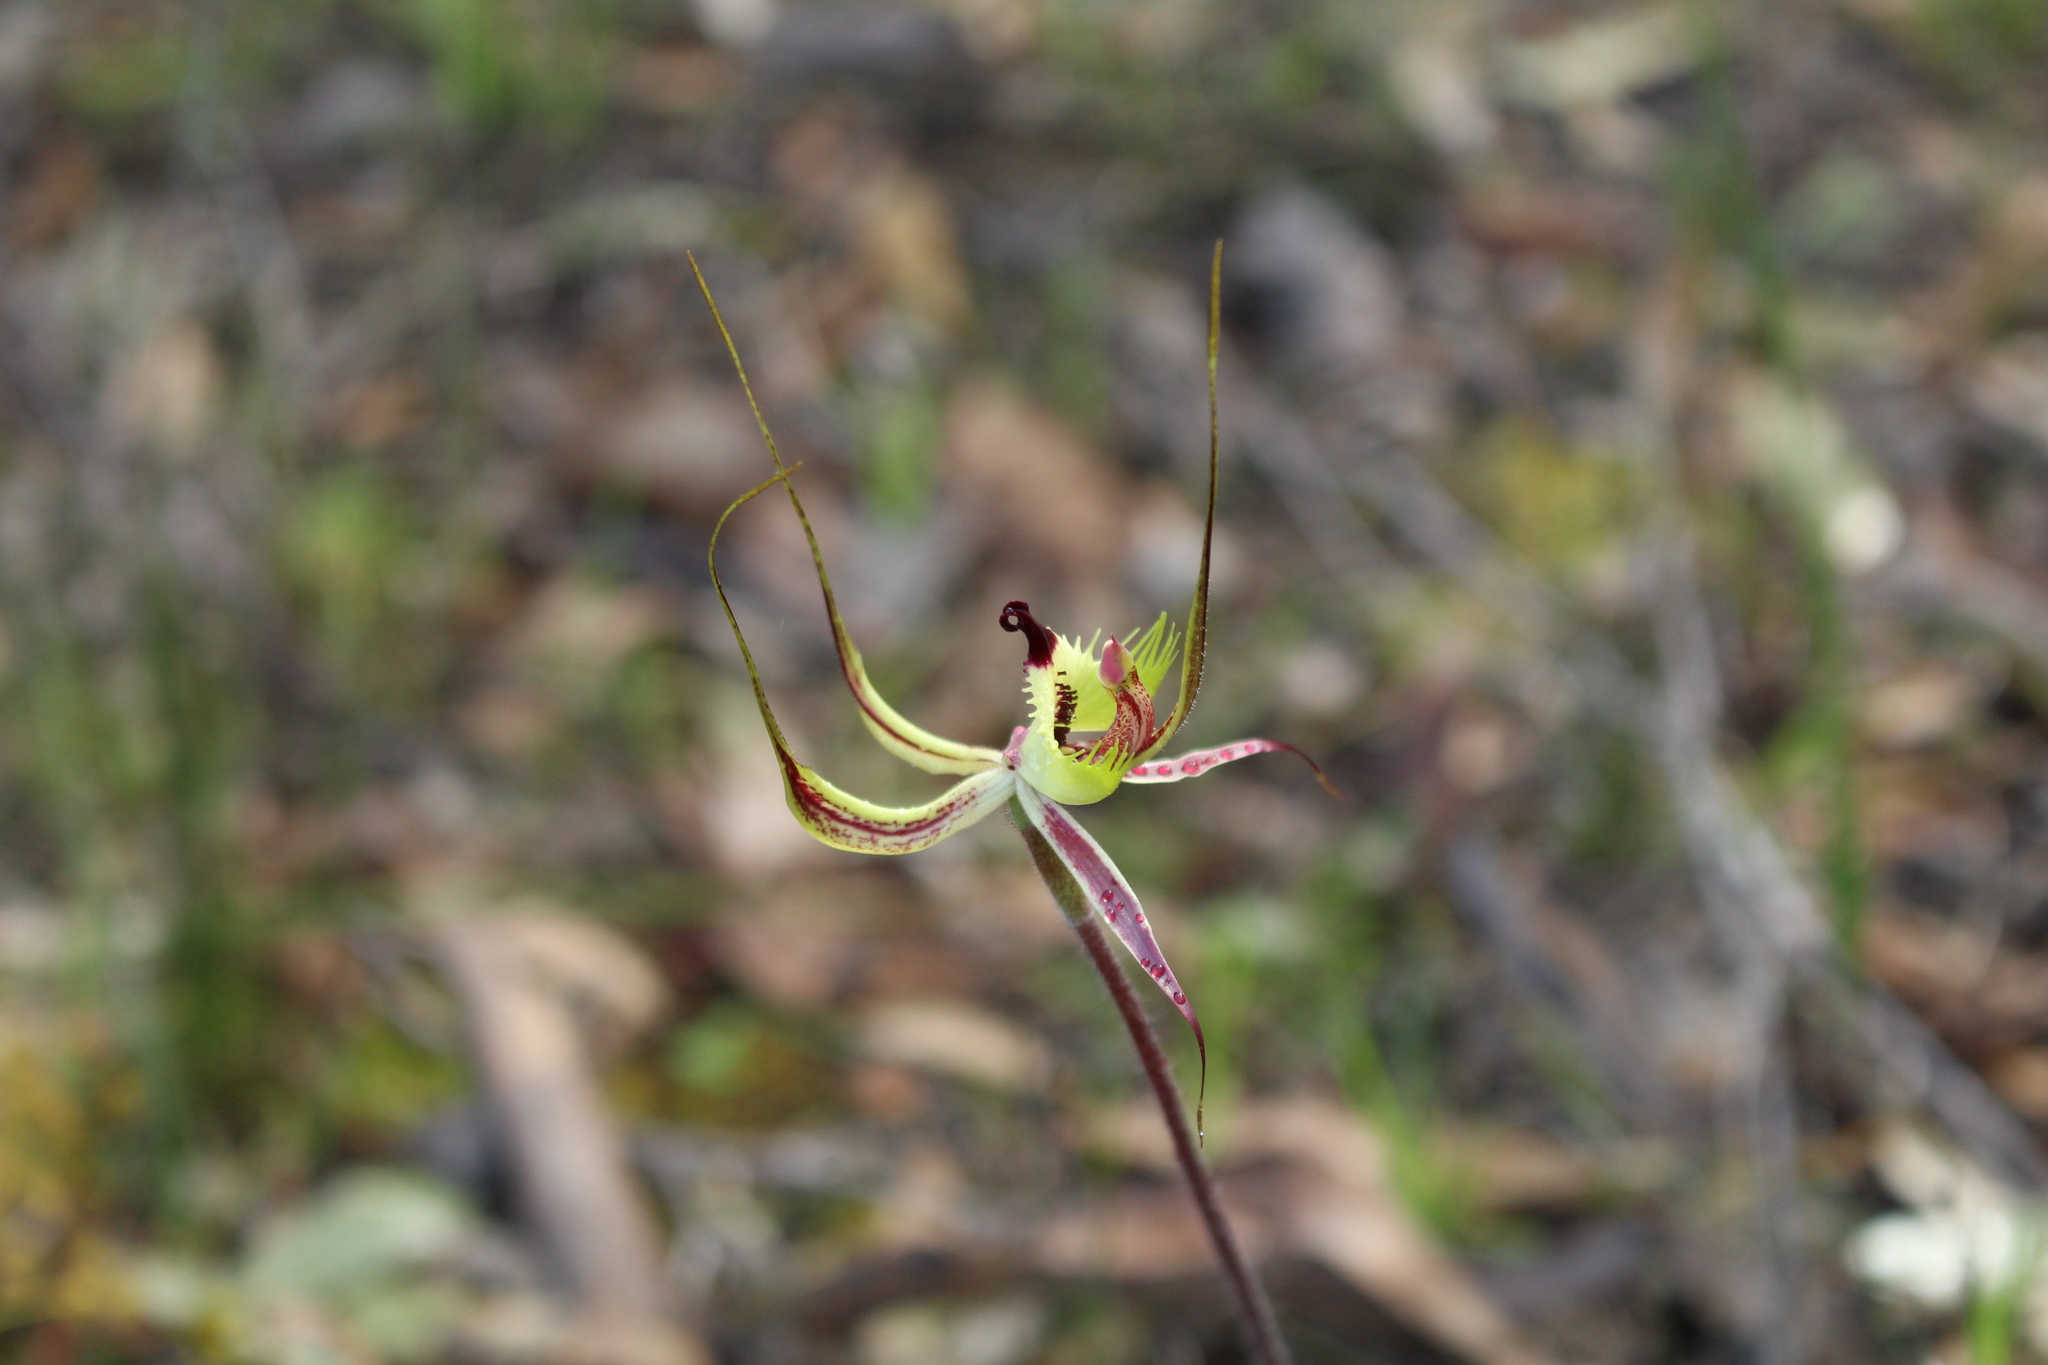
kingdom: Plantae
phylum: Tracheophyta
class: Liliopsida
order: Asparagales
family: Orchidaceae
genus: Caladenia
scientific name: Caladenia falcata
